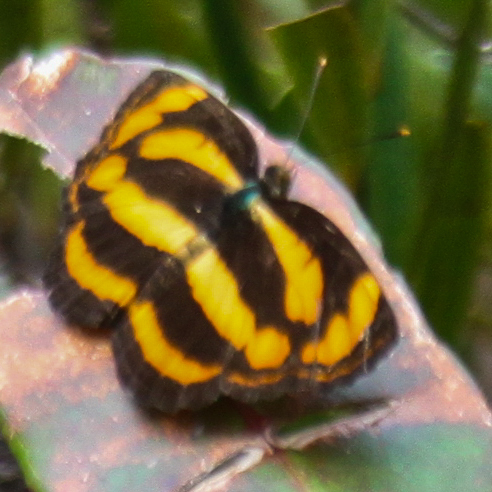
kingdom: Animalia
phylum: Arthropoda
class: Insecta
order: Lepidoptera
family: Nymphalidae
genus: Pantoporia
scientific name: Pantoporia hordonia
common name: Common lascar
